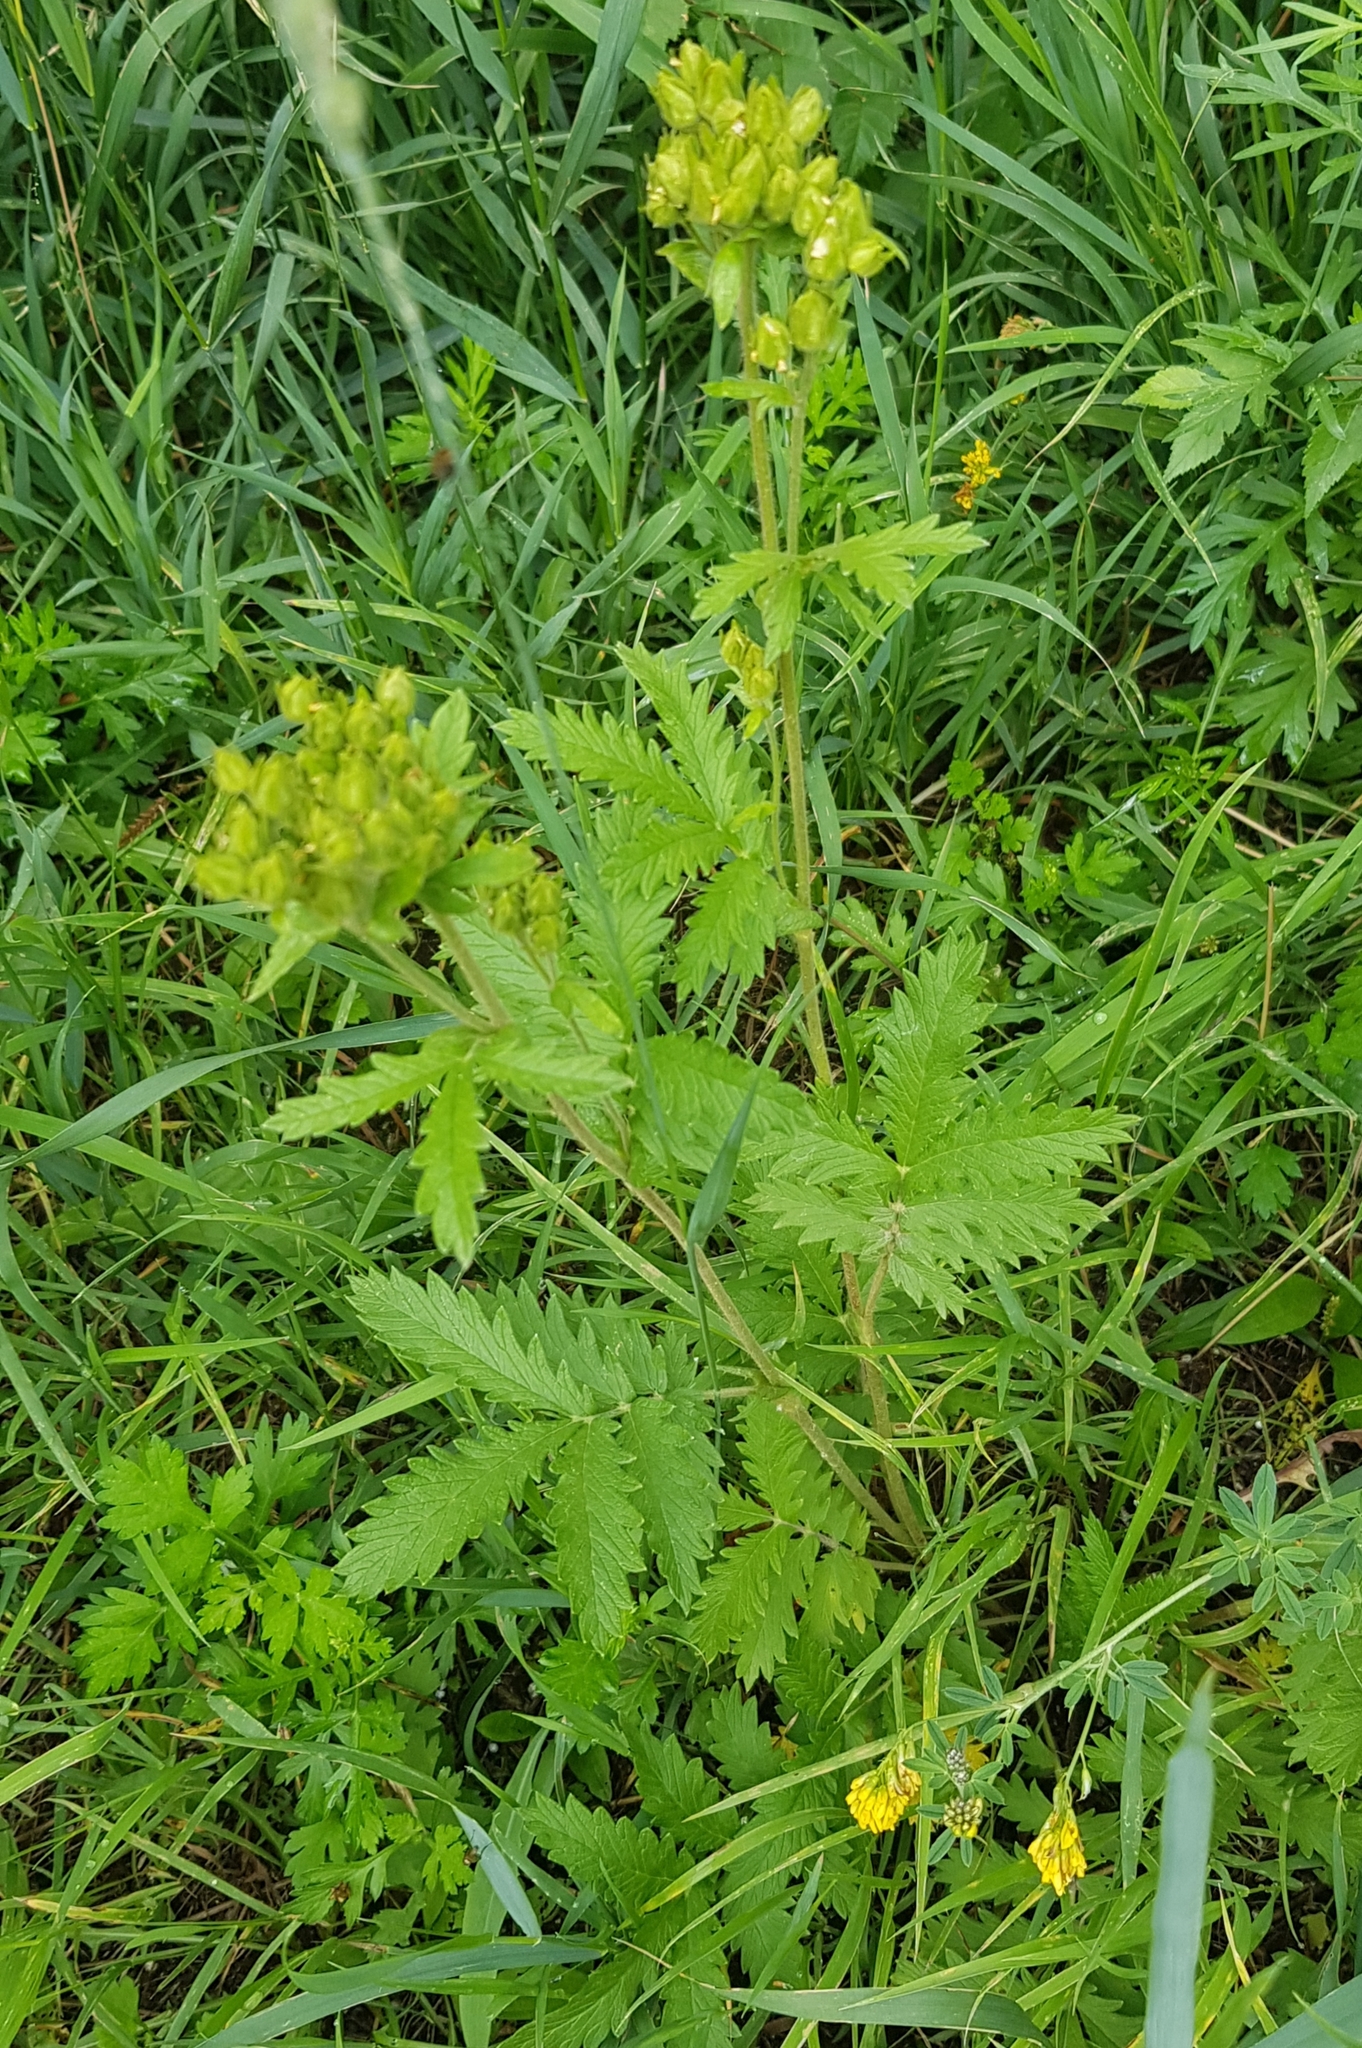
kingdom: Plantae
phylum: Tracheophyta
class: Magnoliopsida
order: Rosales
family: Rosaceae
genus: Potentilla
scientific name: Potentilla tanacetifolia
